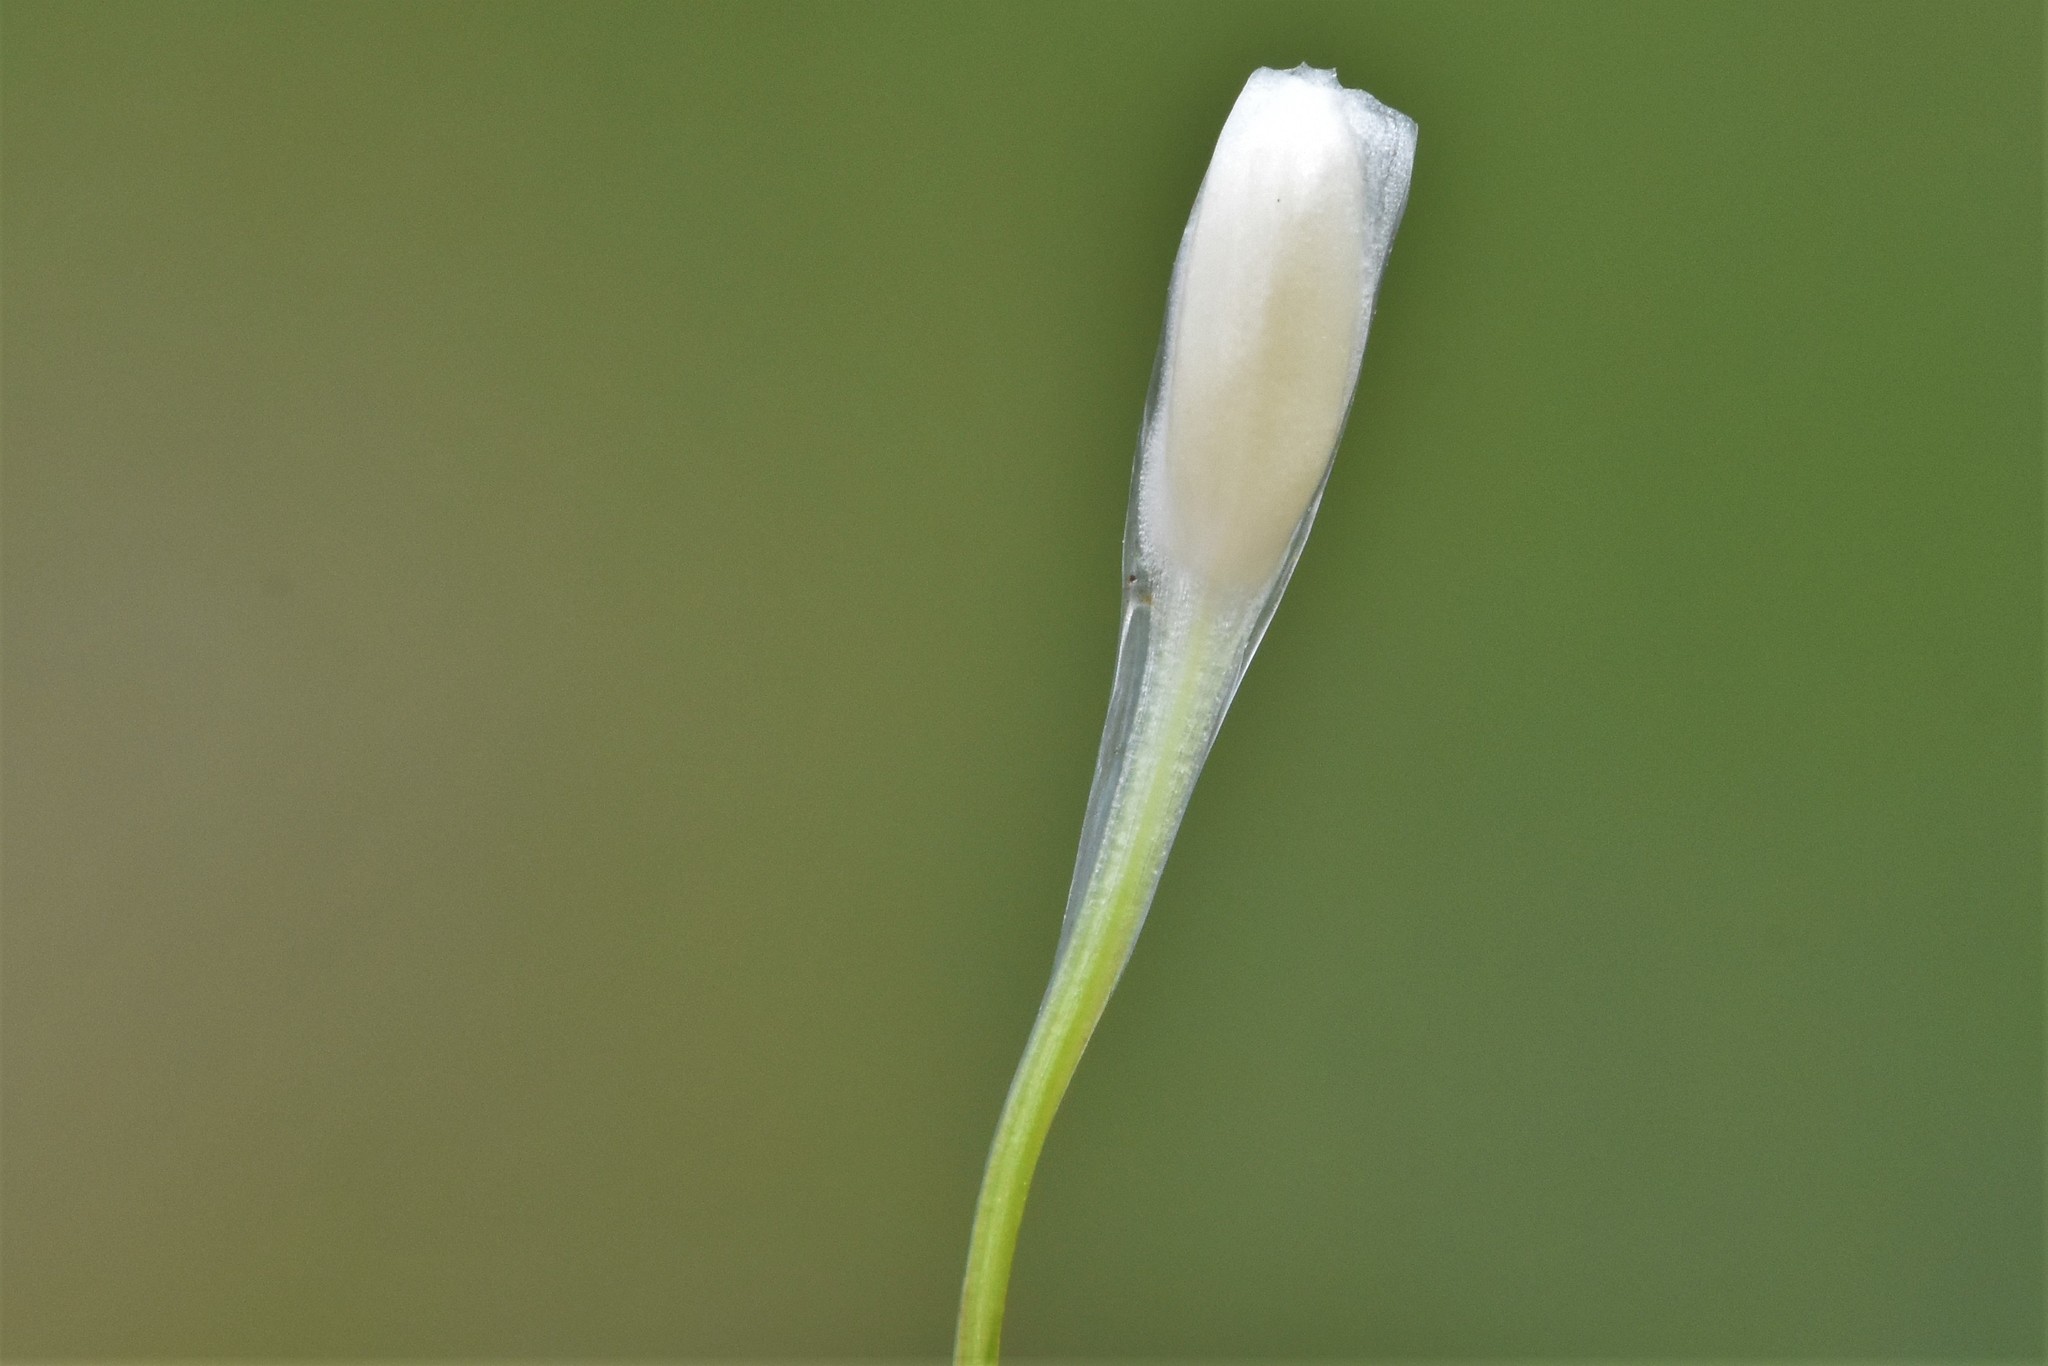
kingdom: Plantae
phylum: Tracheophyta
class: Lycopodiopsida
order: Isoetales
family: Isoetaceae
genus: Isoetes
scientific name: Isoetes nuttallii
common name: Nuttall's quillwort
